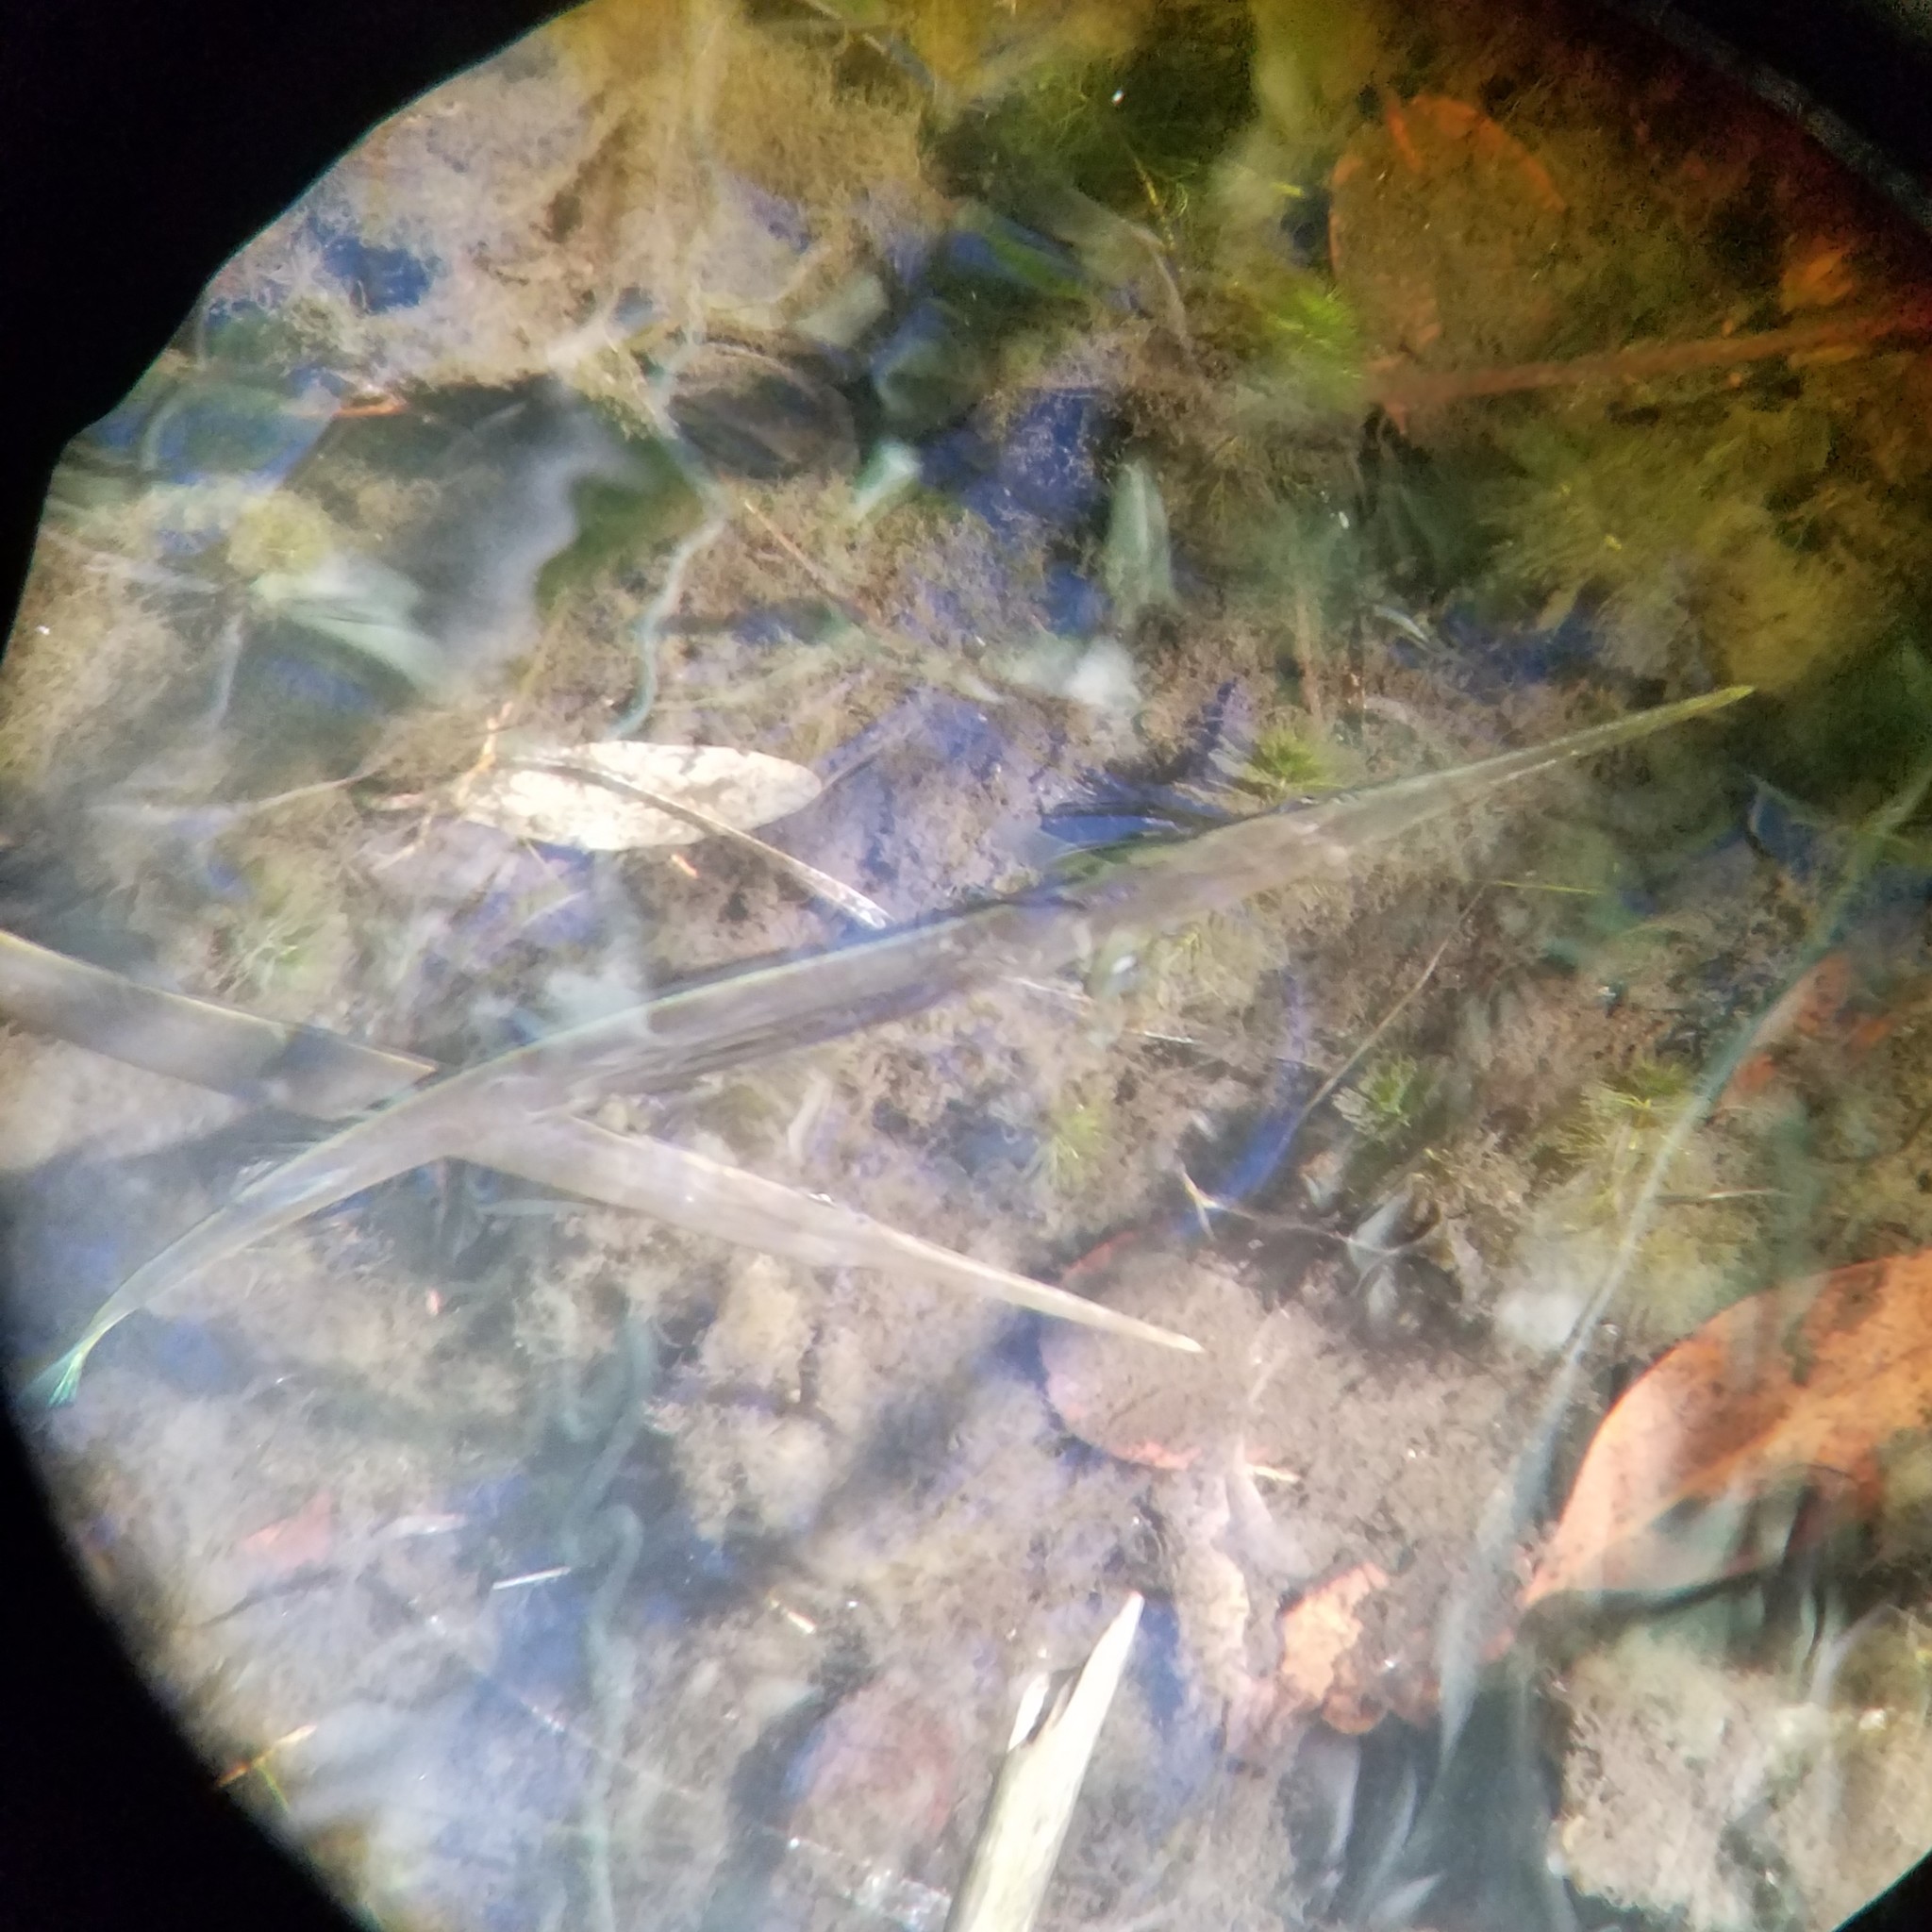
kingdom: Animalia
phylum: Chordata
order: Beloniformes
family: Belonidae
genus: Strongylura
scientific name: Strongylura timucu
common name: Timucu
